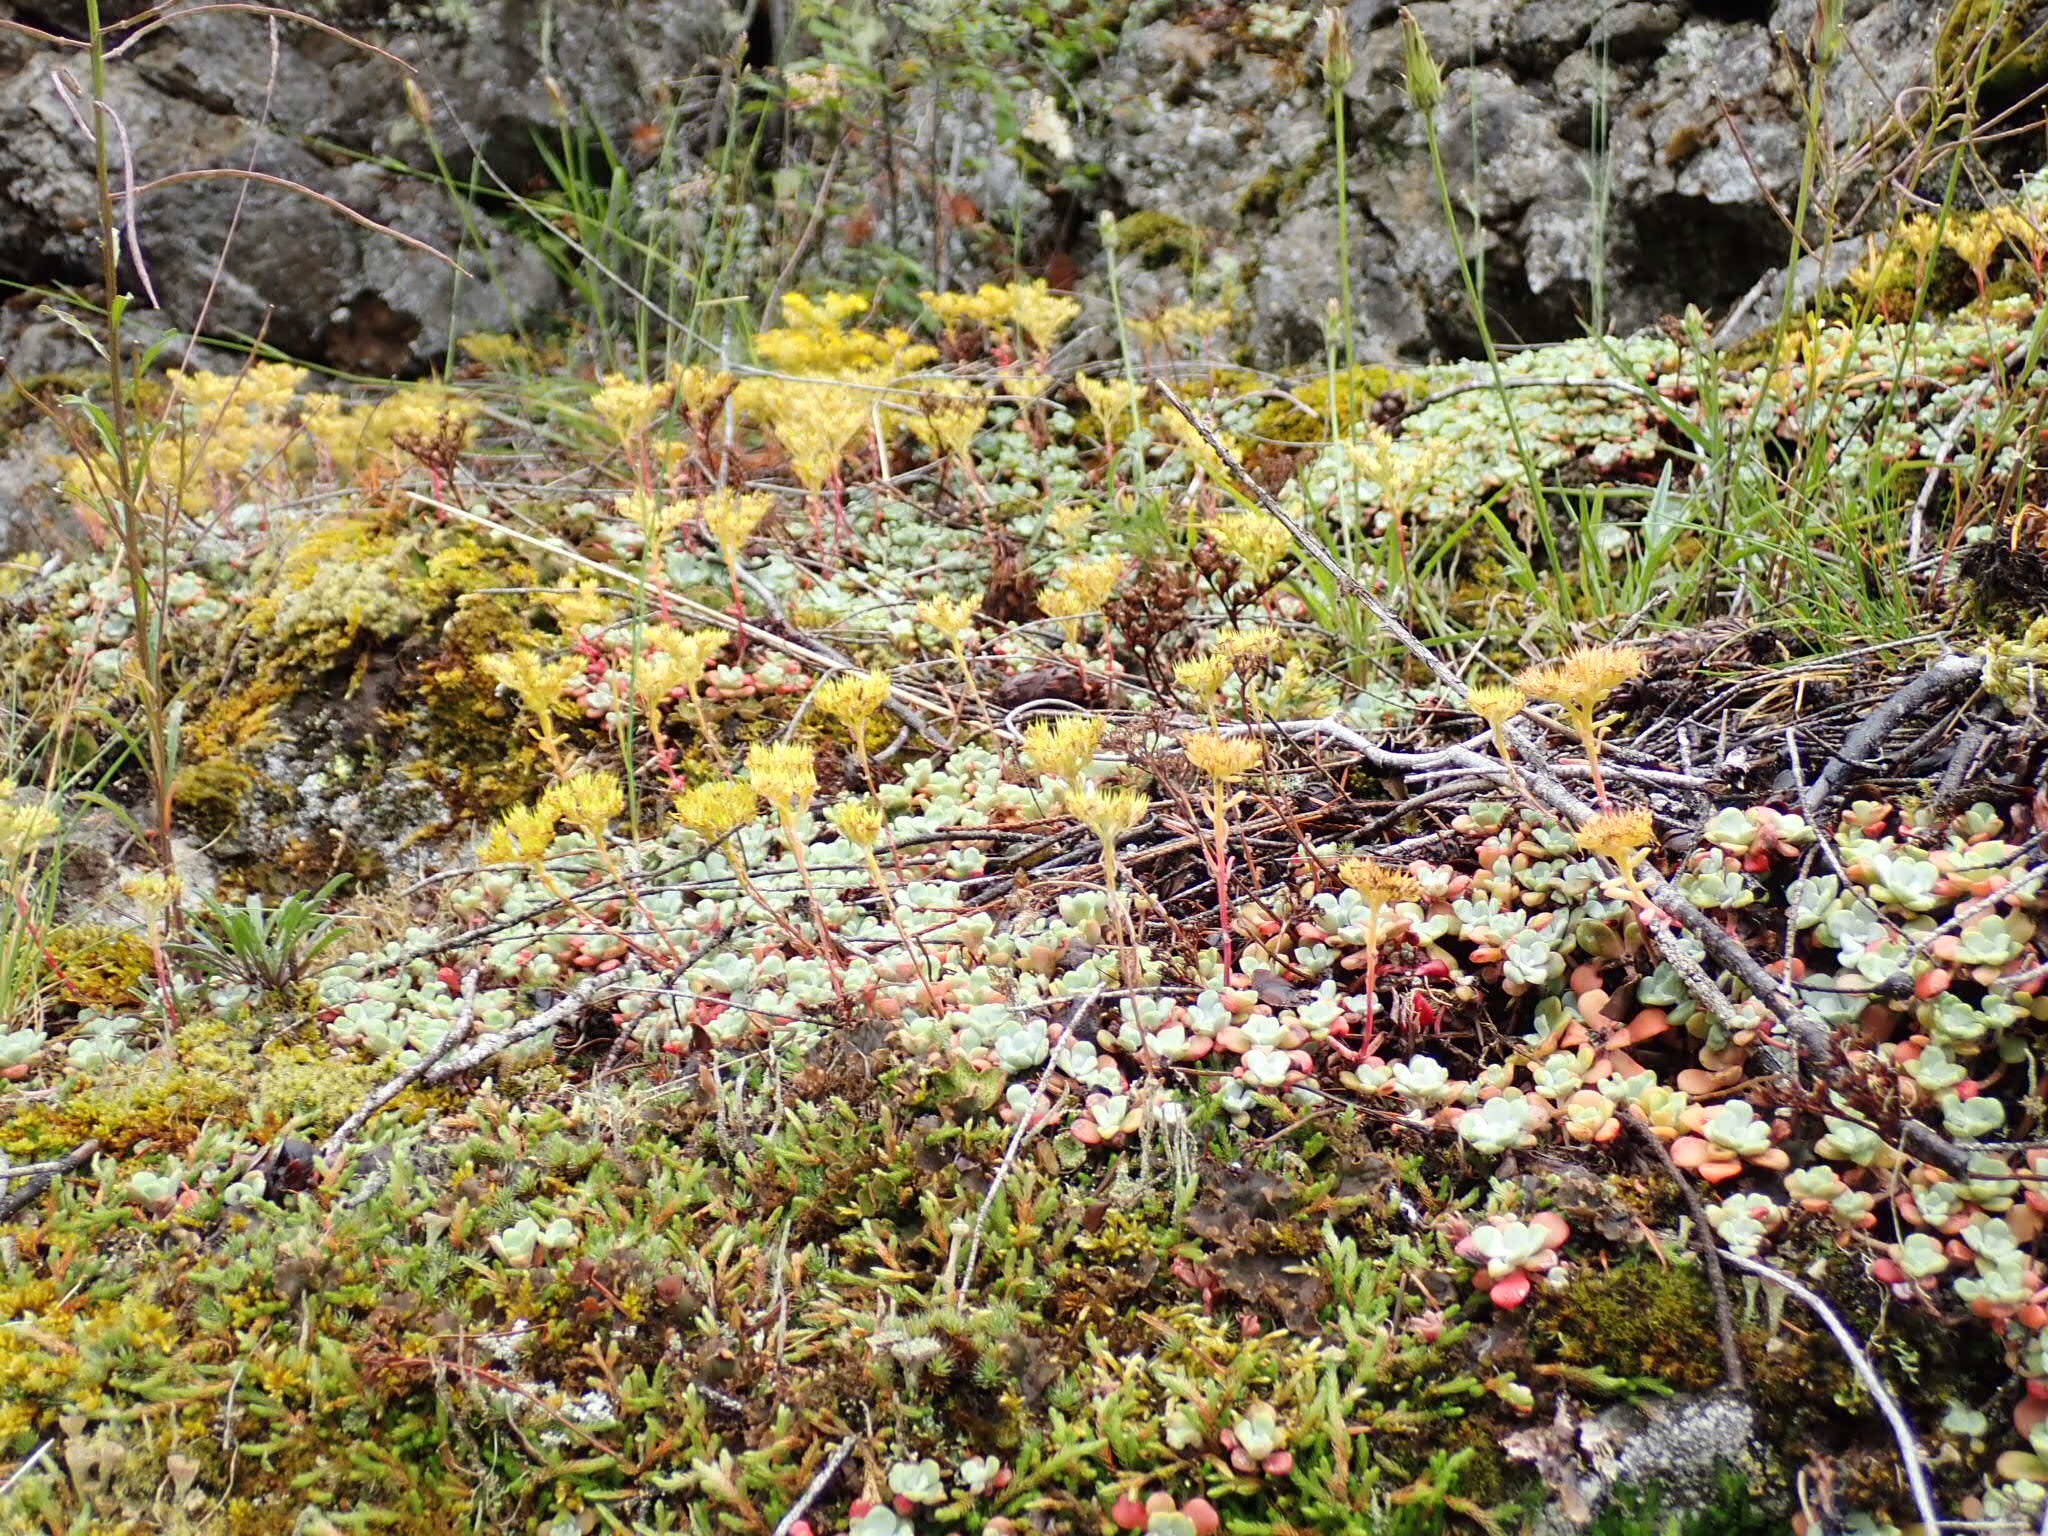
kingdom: Plantae
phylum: Tracheophyta
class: Magnoliopsida
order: Saxifragales
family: Crassulaceae
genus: Sedum
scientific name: Sedum spathulifolium
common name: Colorado stonecrop
